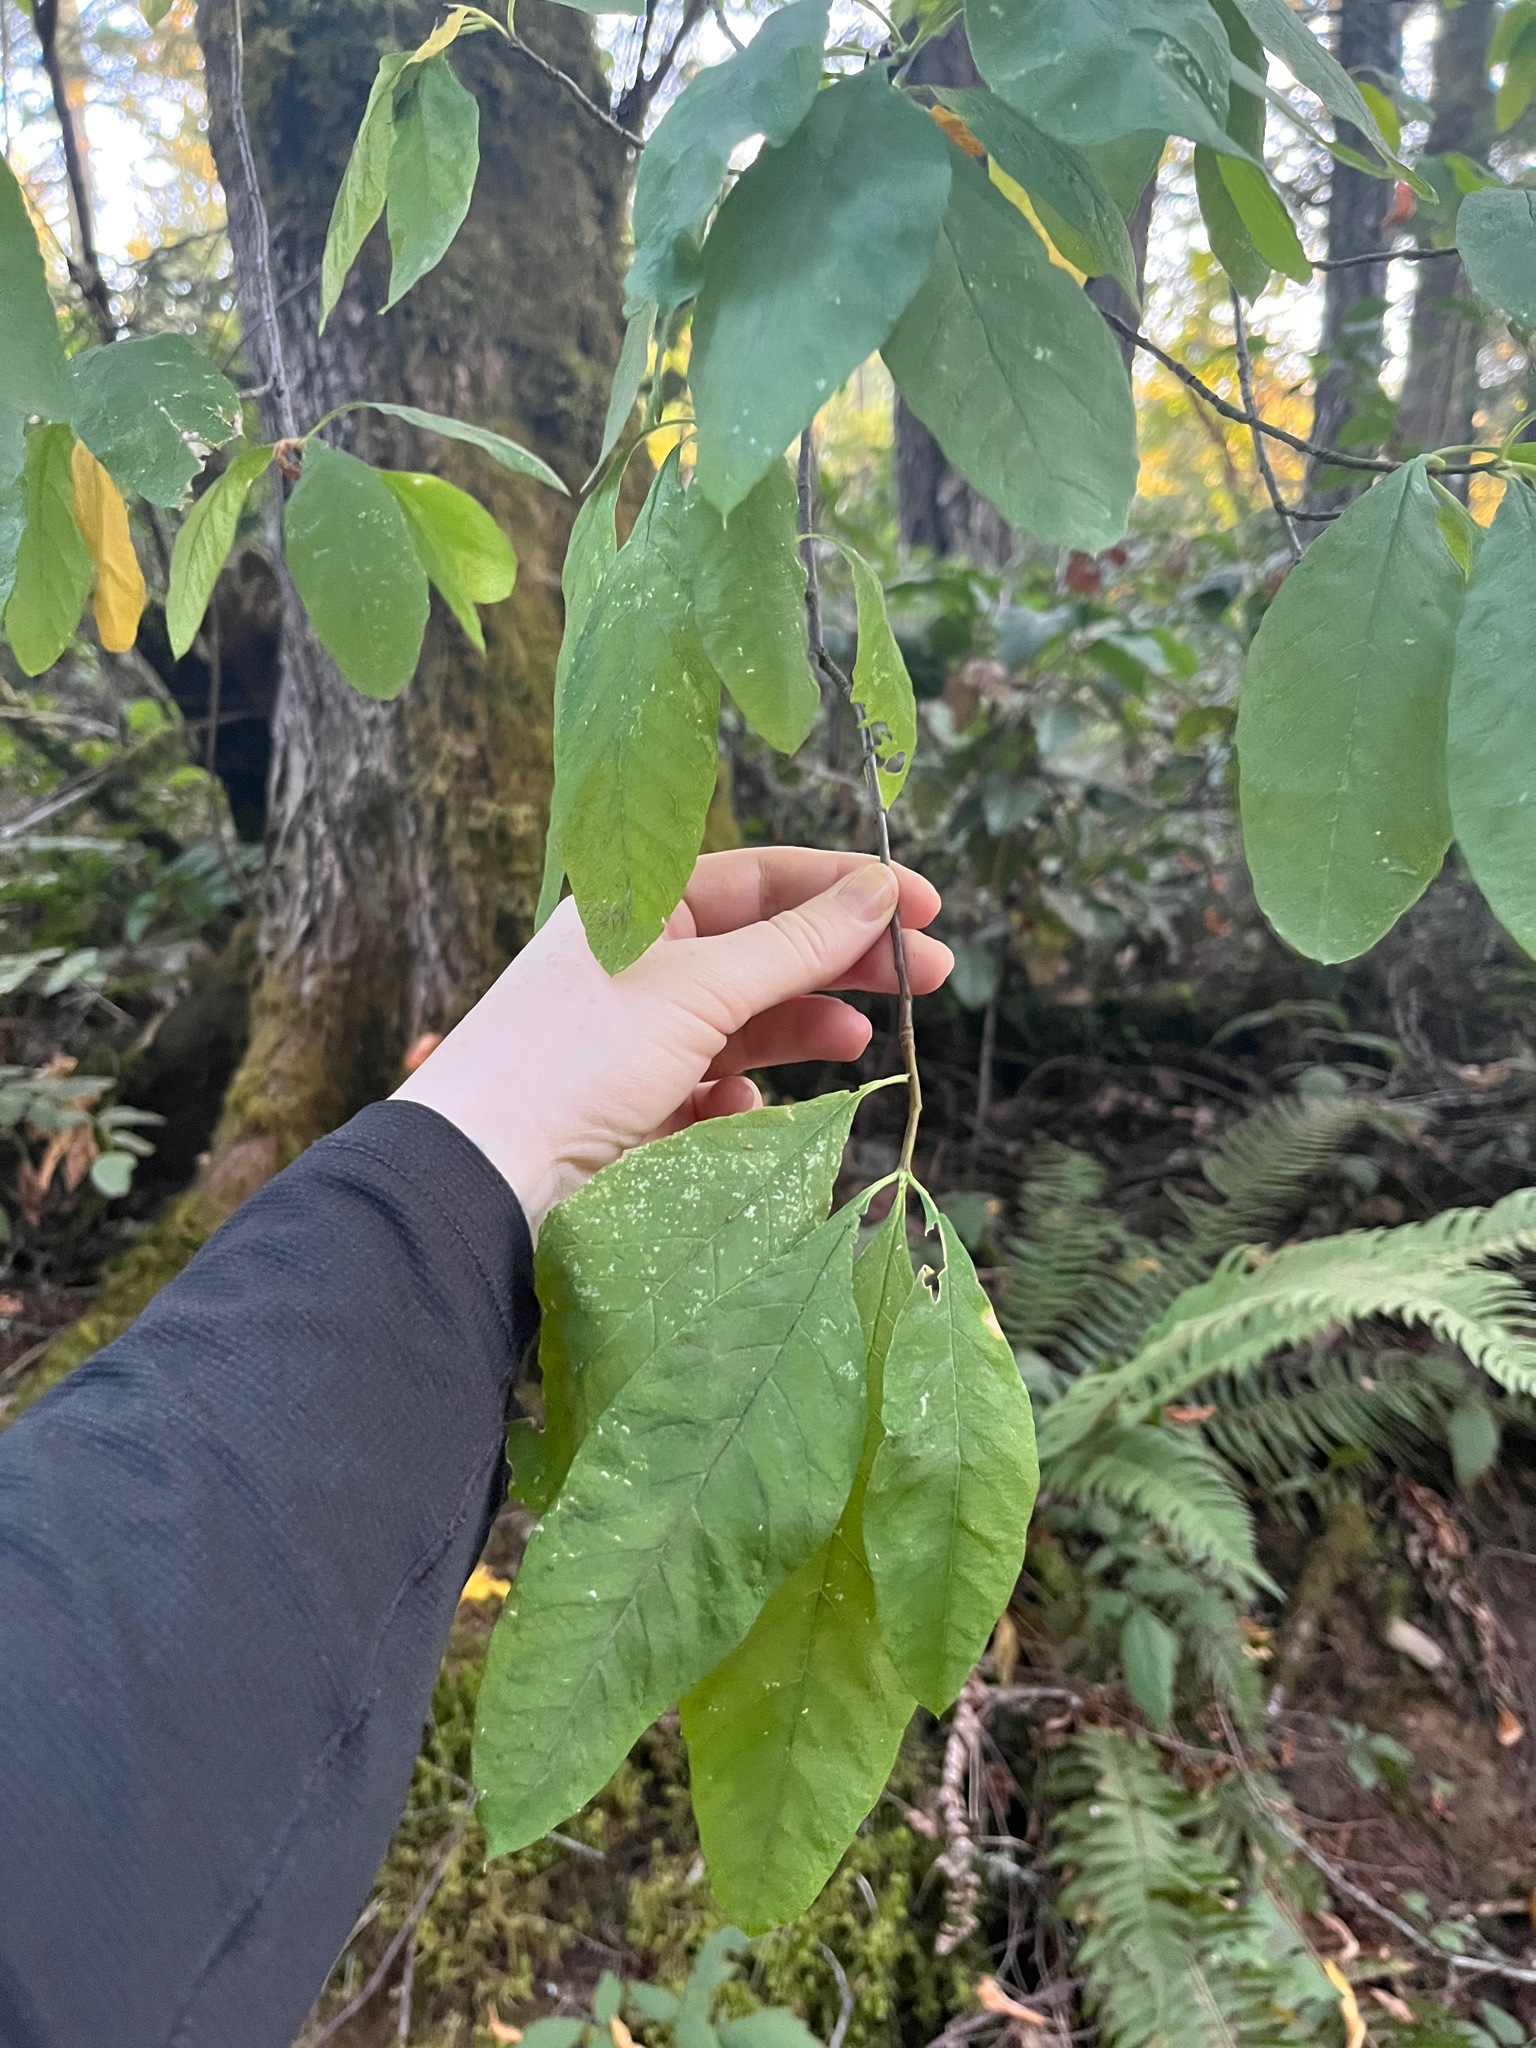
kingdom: Plantae
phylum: Tracheophyta
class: Magnoliopsida
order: Rosales
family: Rosaceae
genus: Oemleria
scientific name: Oemleria cerasiformis
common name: Osoberry
